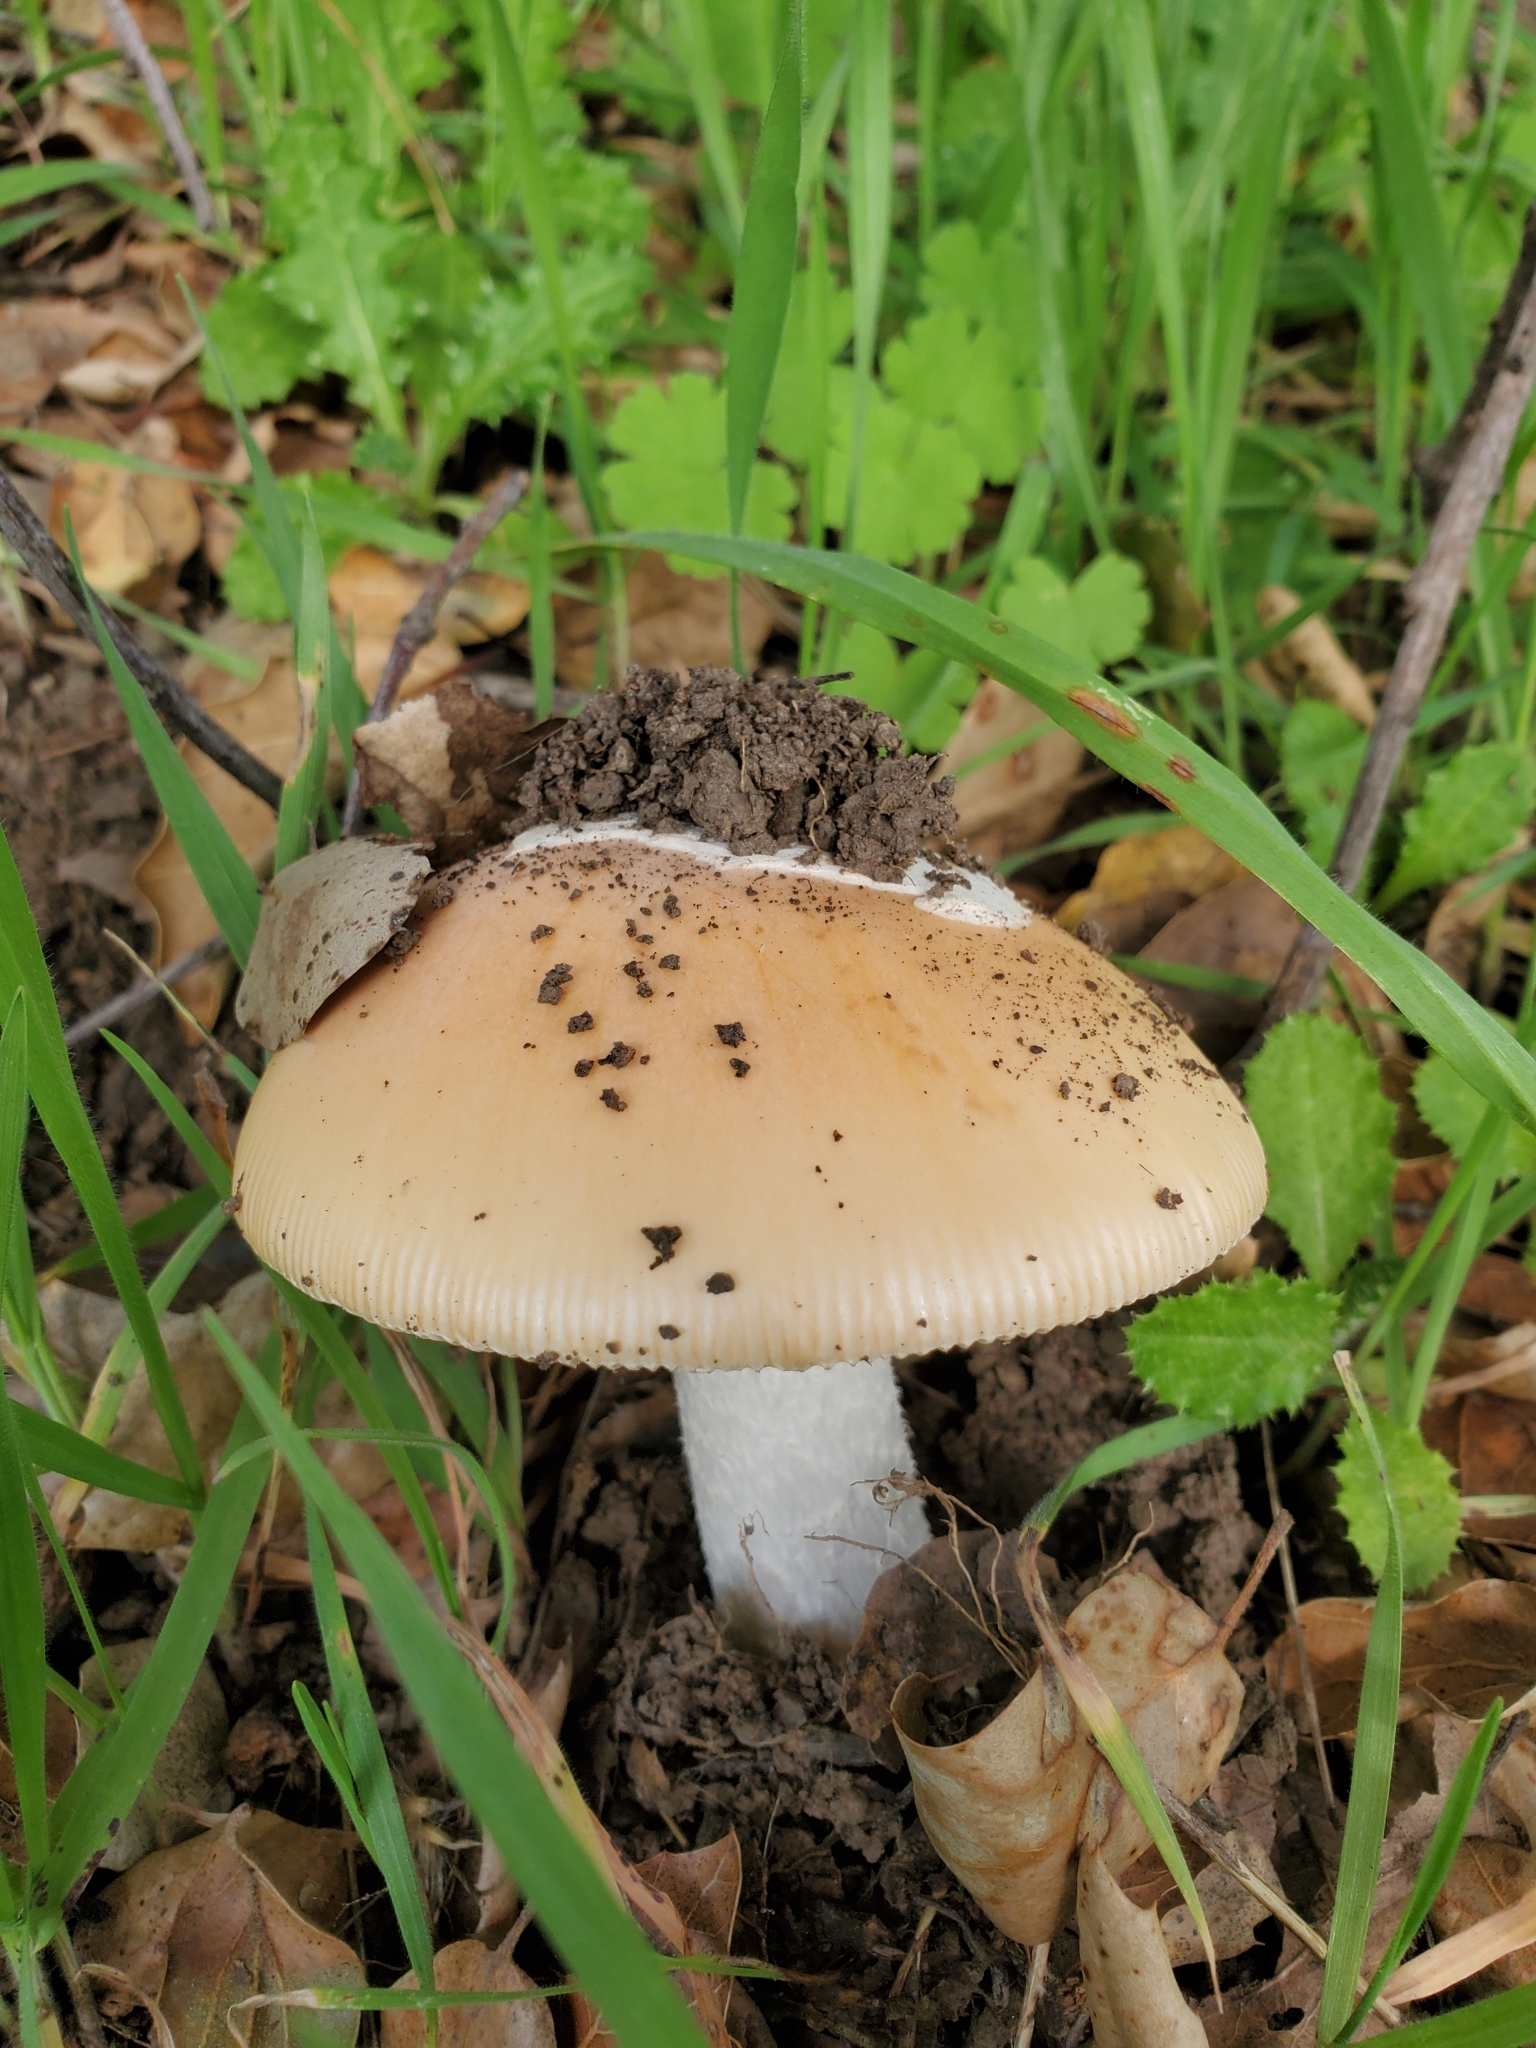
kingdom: Fungi
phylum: Basidiomycota
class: Agaricomycetes
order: Agaricales
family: Amanitaceae
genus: Amanita
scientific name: Amanita velosa
